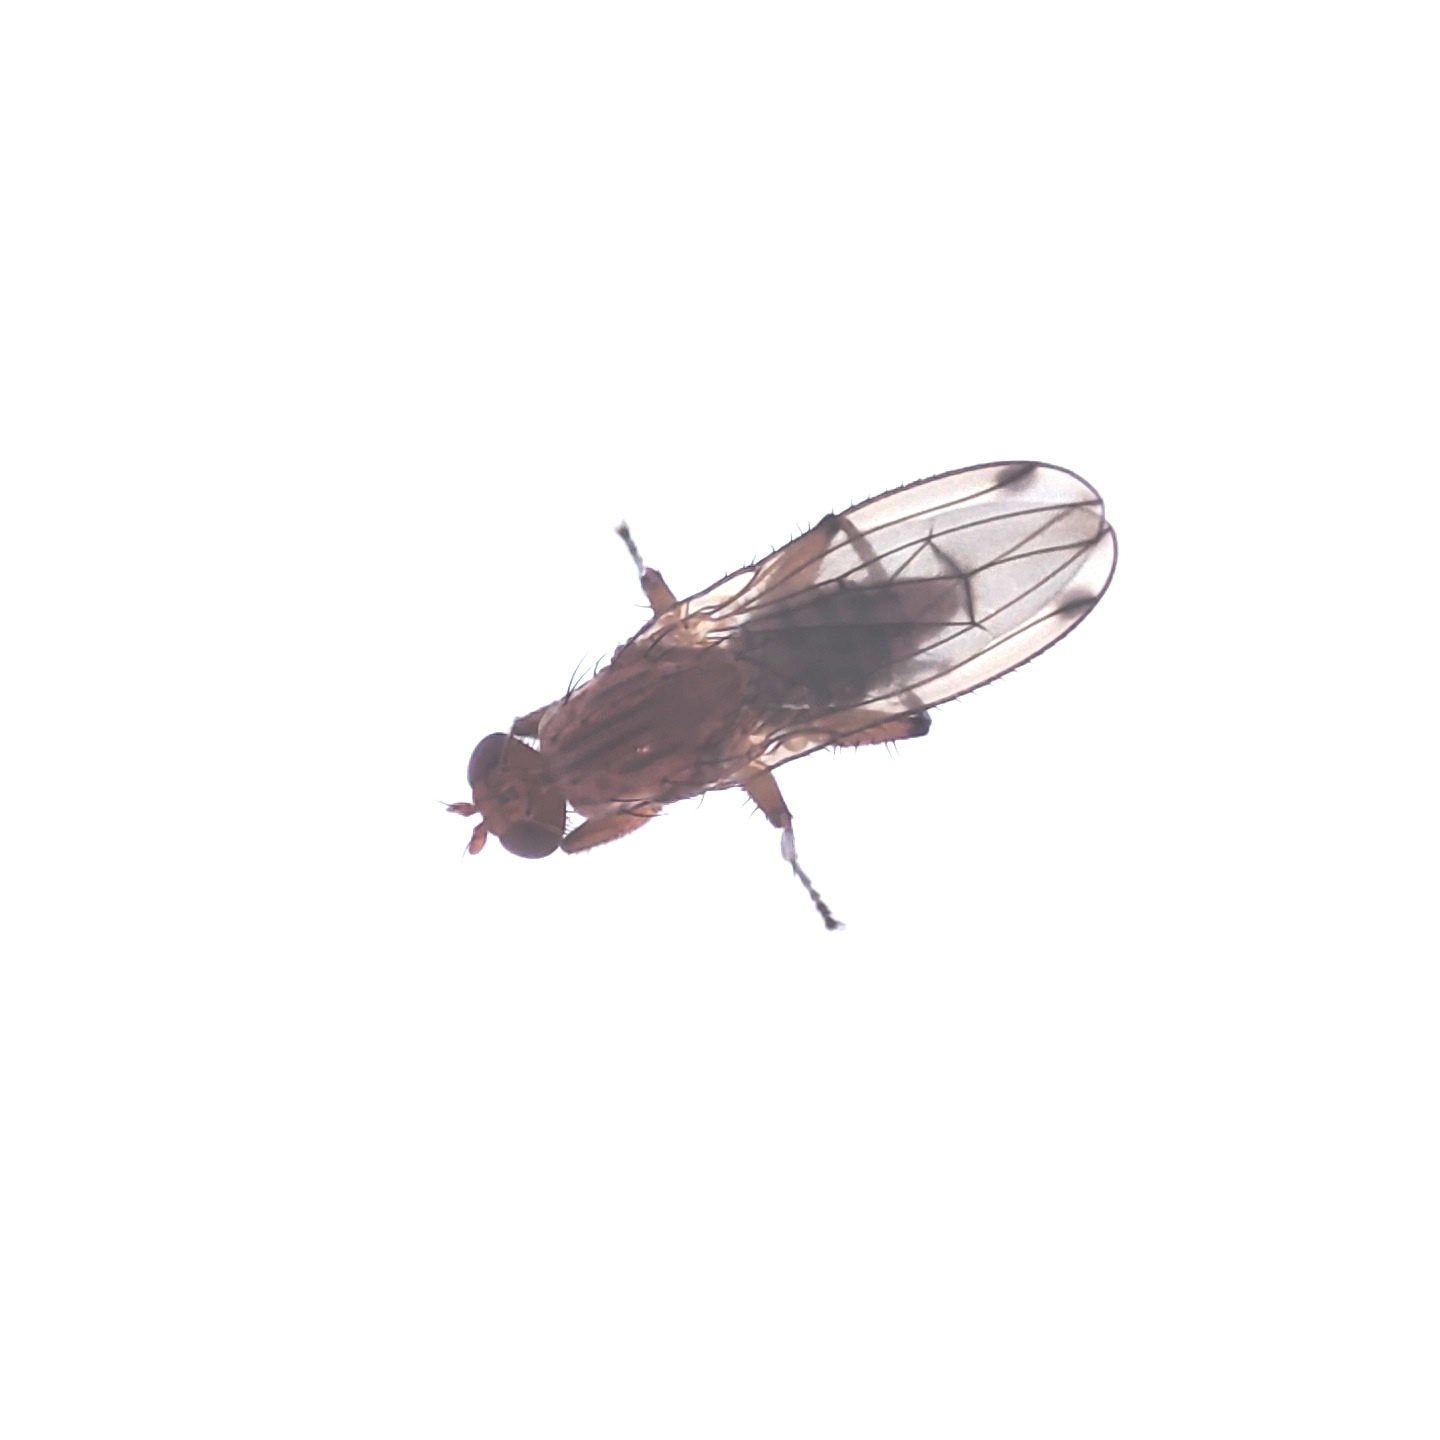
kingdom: Animalia
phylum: Arthropoda
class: Insecta
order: Diptera
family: Heleomyzidae
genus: Suillia
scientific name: Suillia lineitergum
